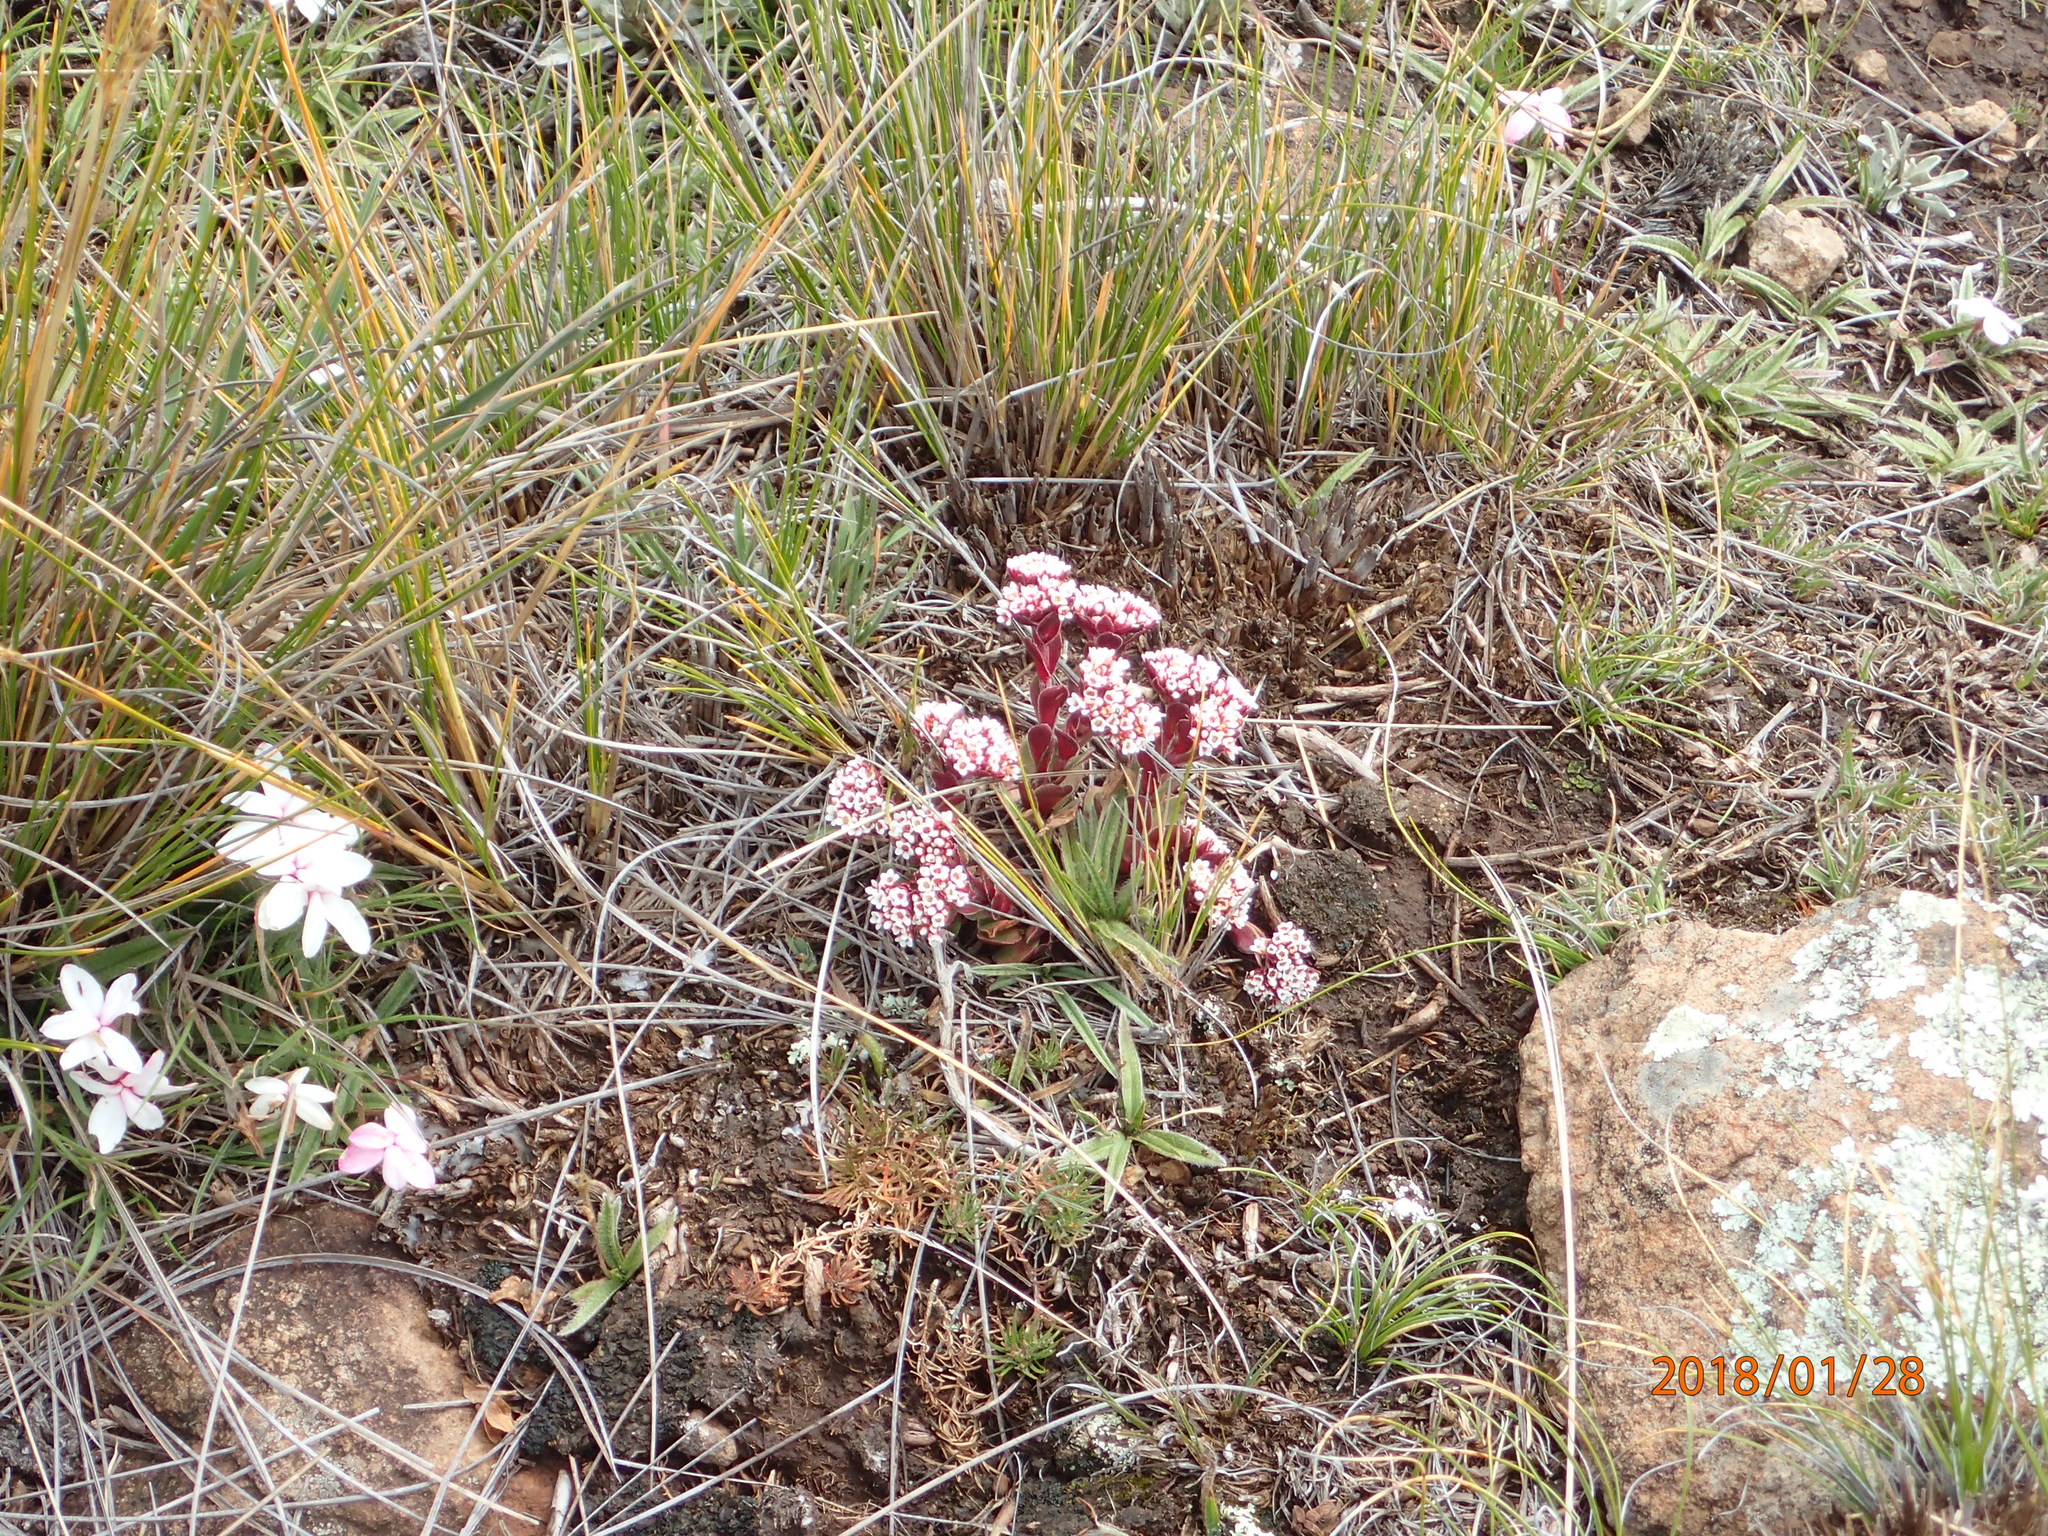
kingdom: Plantae
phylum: Tracheophyta
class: Magnoliopsida
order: Saxifragales
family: Crassulaceae
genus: Crassula
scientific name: Crassula natalensis
